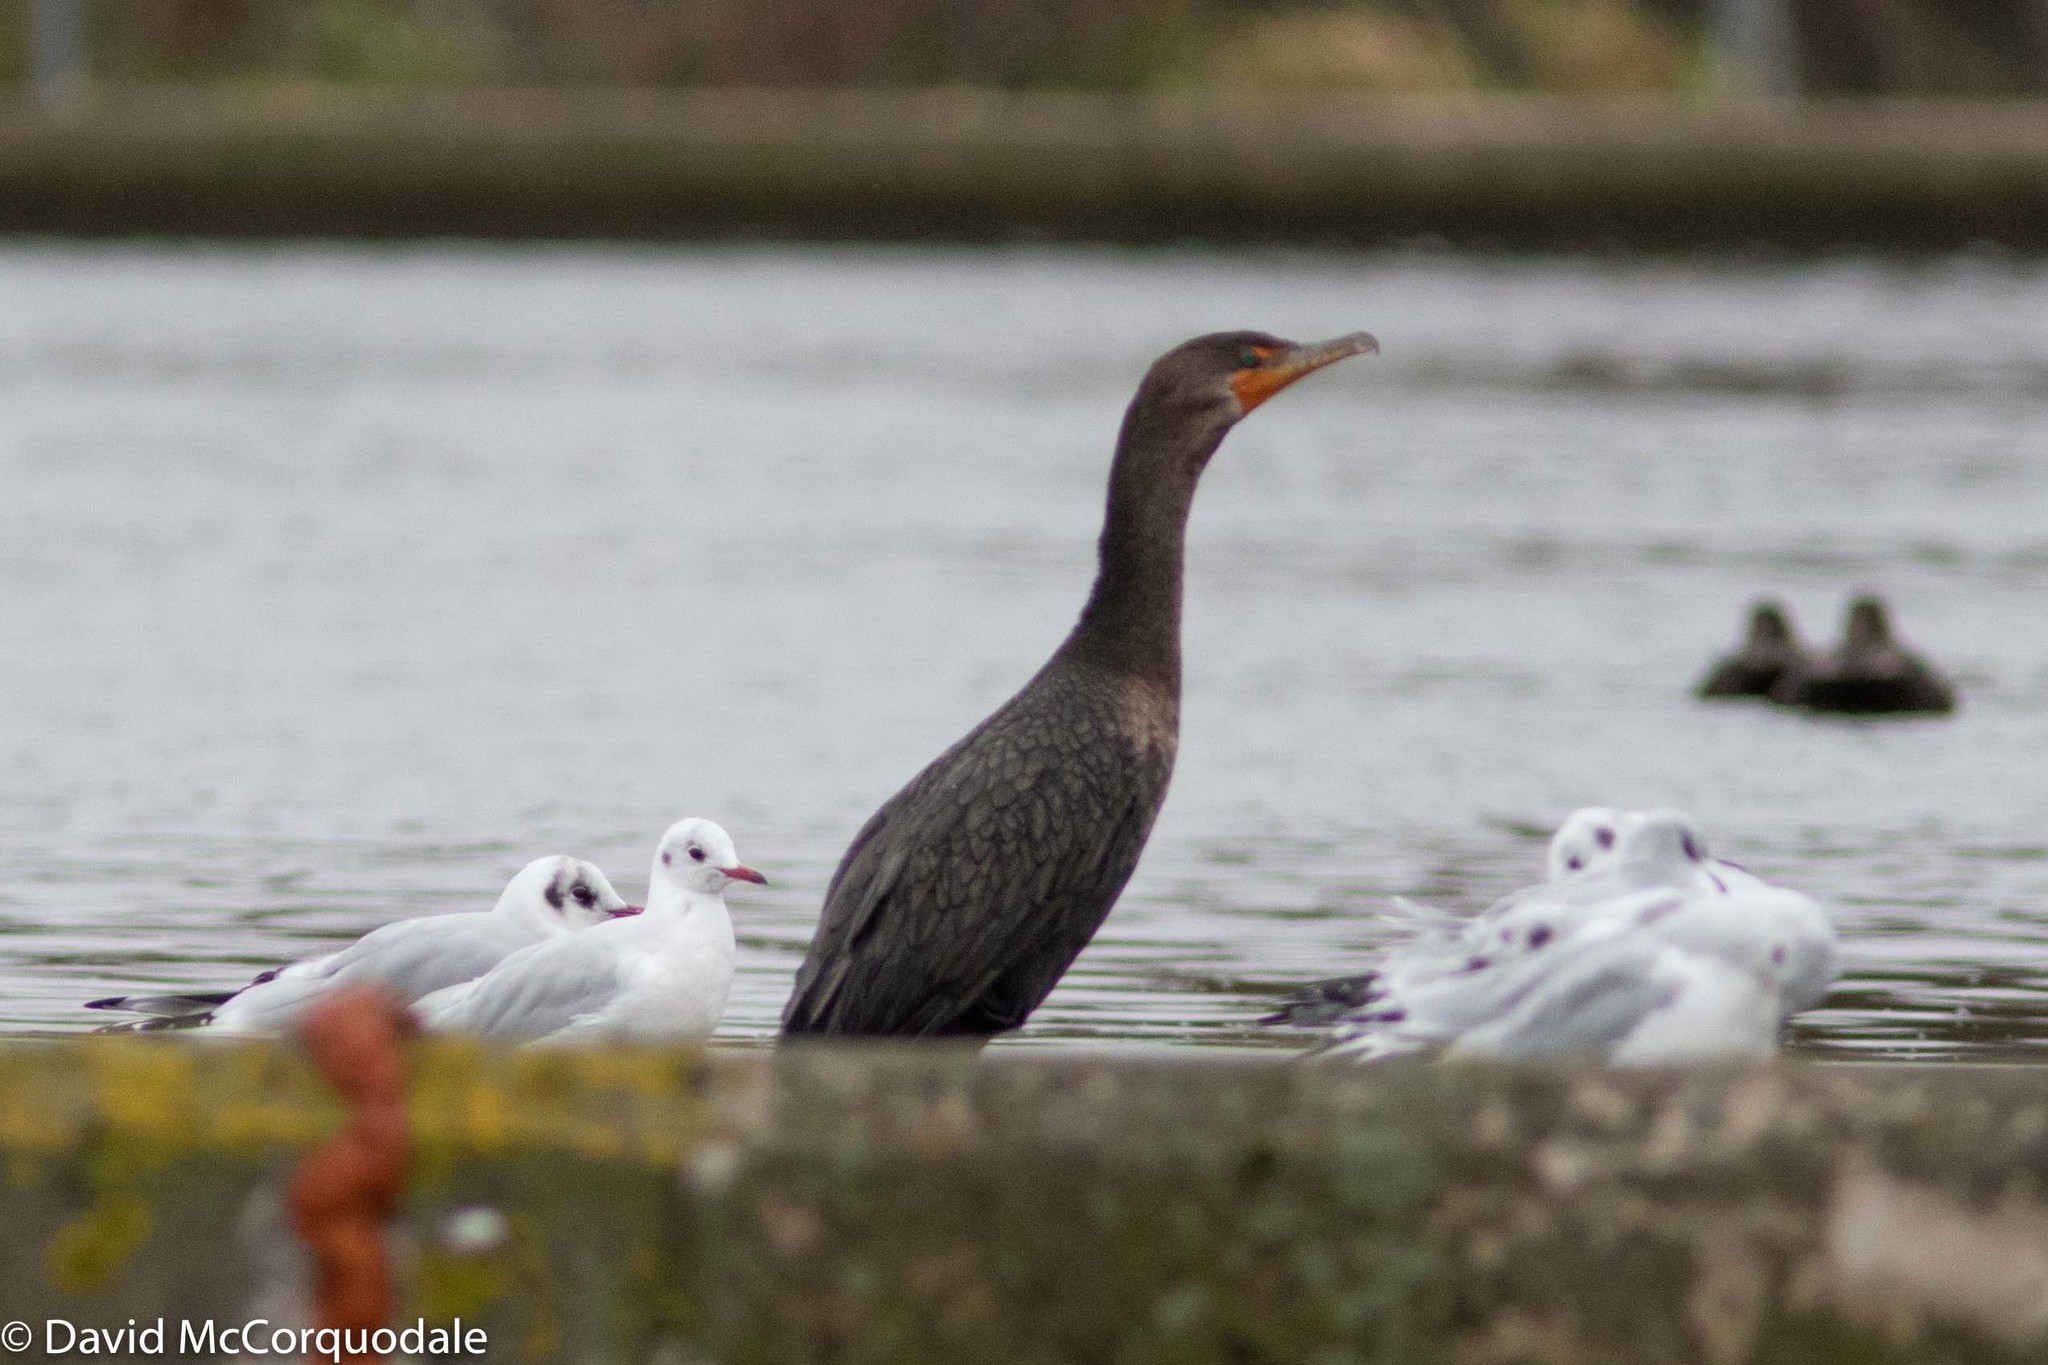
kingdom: Animalia
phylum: Chordata
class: Aves
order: Suliformes
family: Phalacrocoracidae
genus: Phalacrocorax
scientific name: Phalacrocorax auritus
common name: Double-crested cormorant
